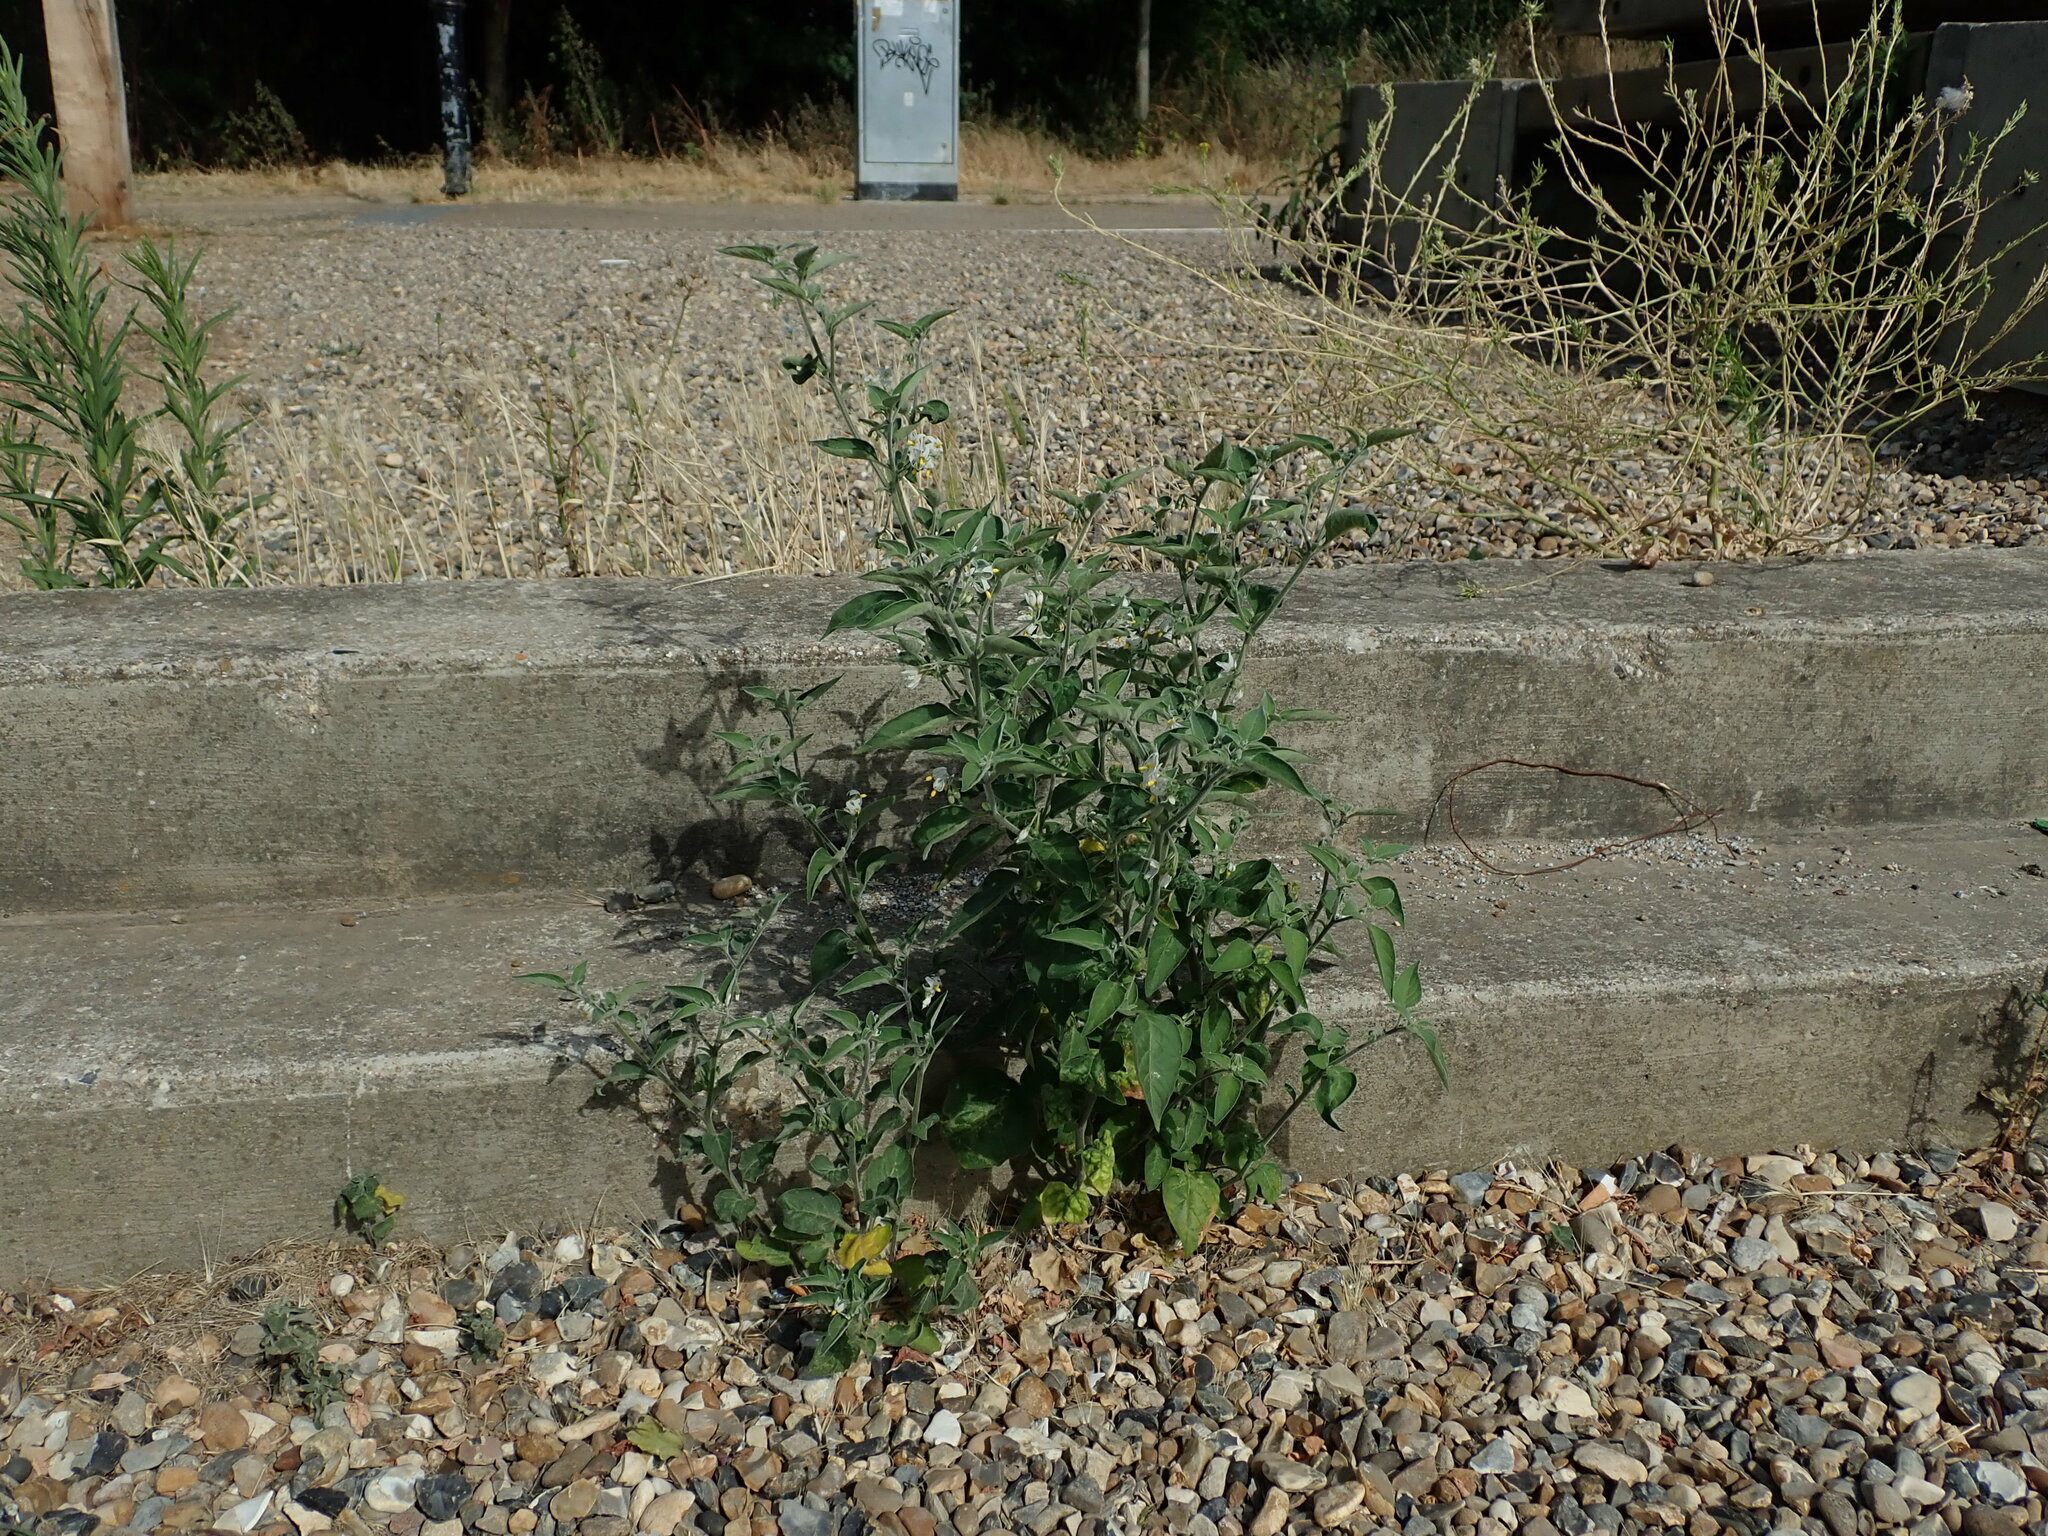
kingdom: Plantae
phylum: Tracheophyta
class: Magnoliopsida
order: Solanales
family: Solanaceae
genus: Solanum
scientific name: Solanum chenopodioides
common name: Tall nightshade
